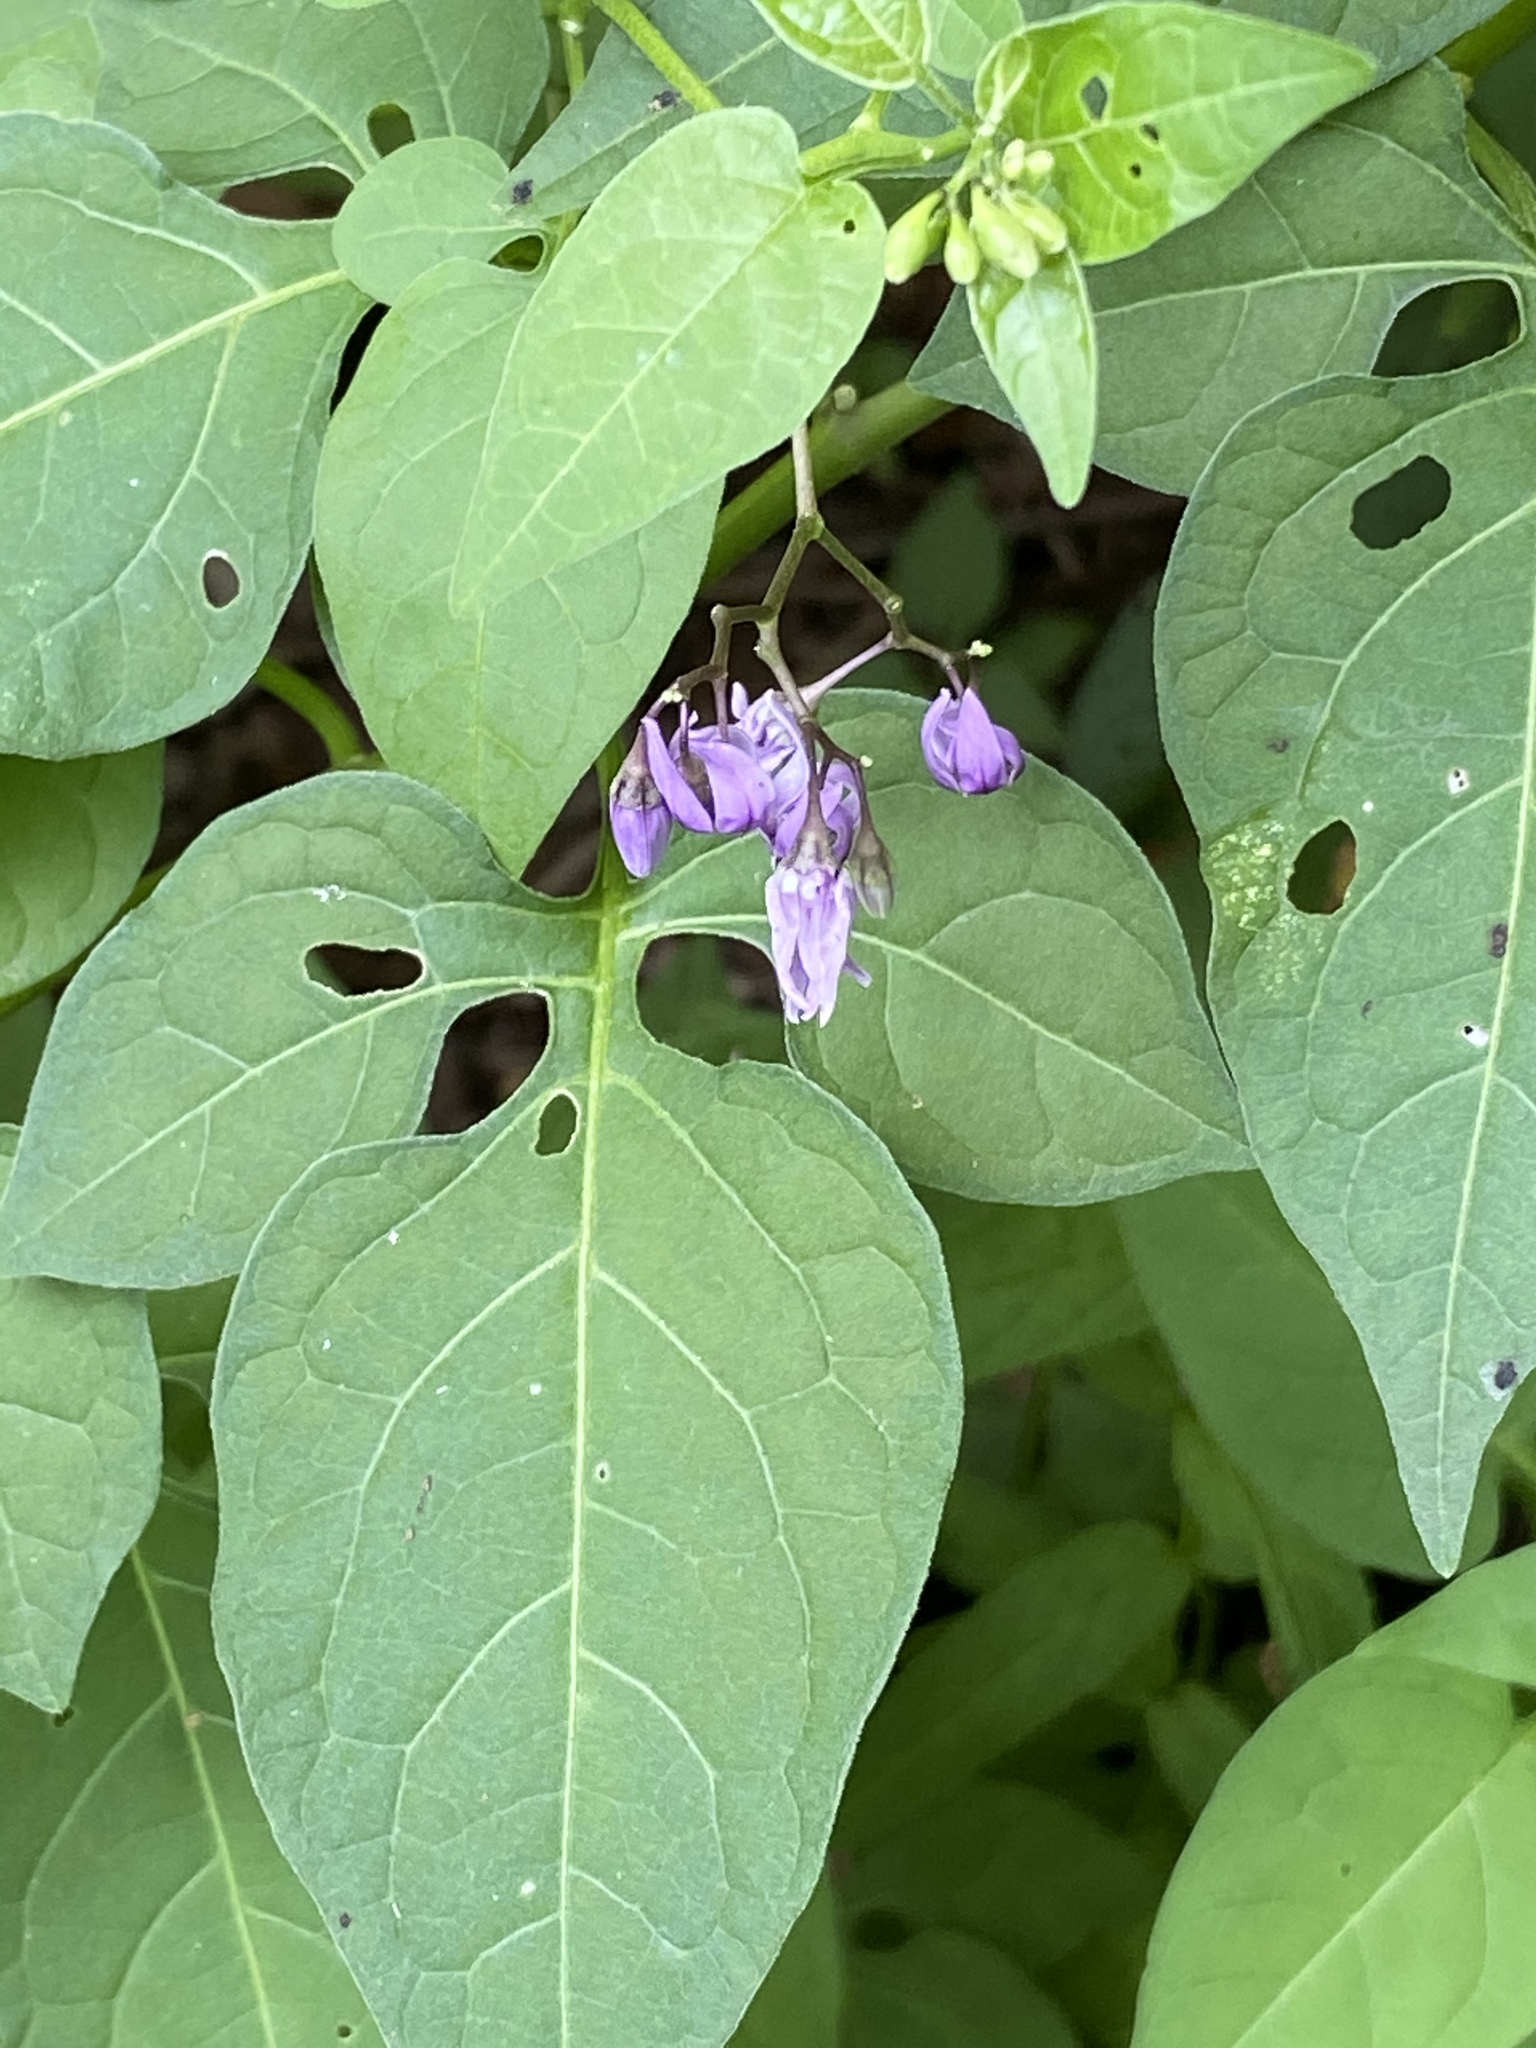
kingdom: Plantae
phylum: Tracheophyta
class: Magnoliopsida
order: Solanales
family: Solanaceae
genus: Solanum
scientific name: Solanum dulcamara
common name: Climbing nightshade
